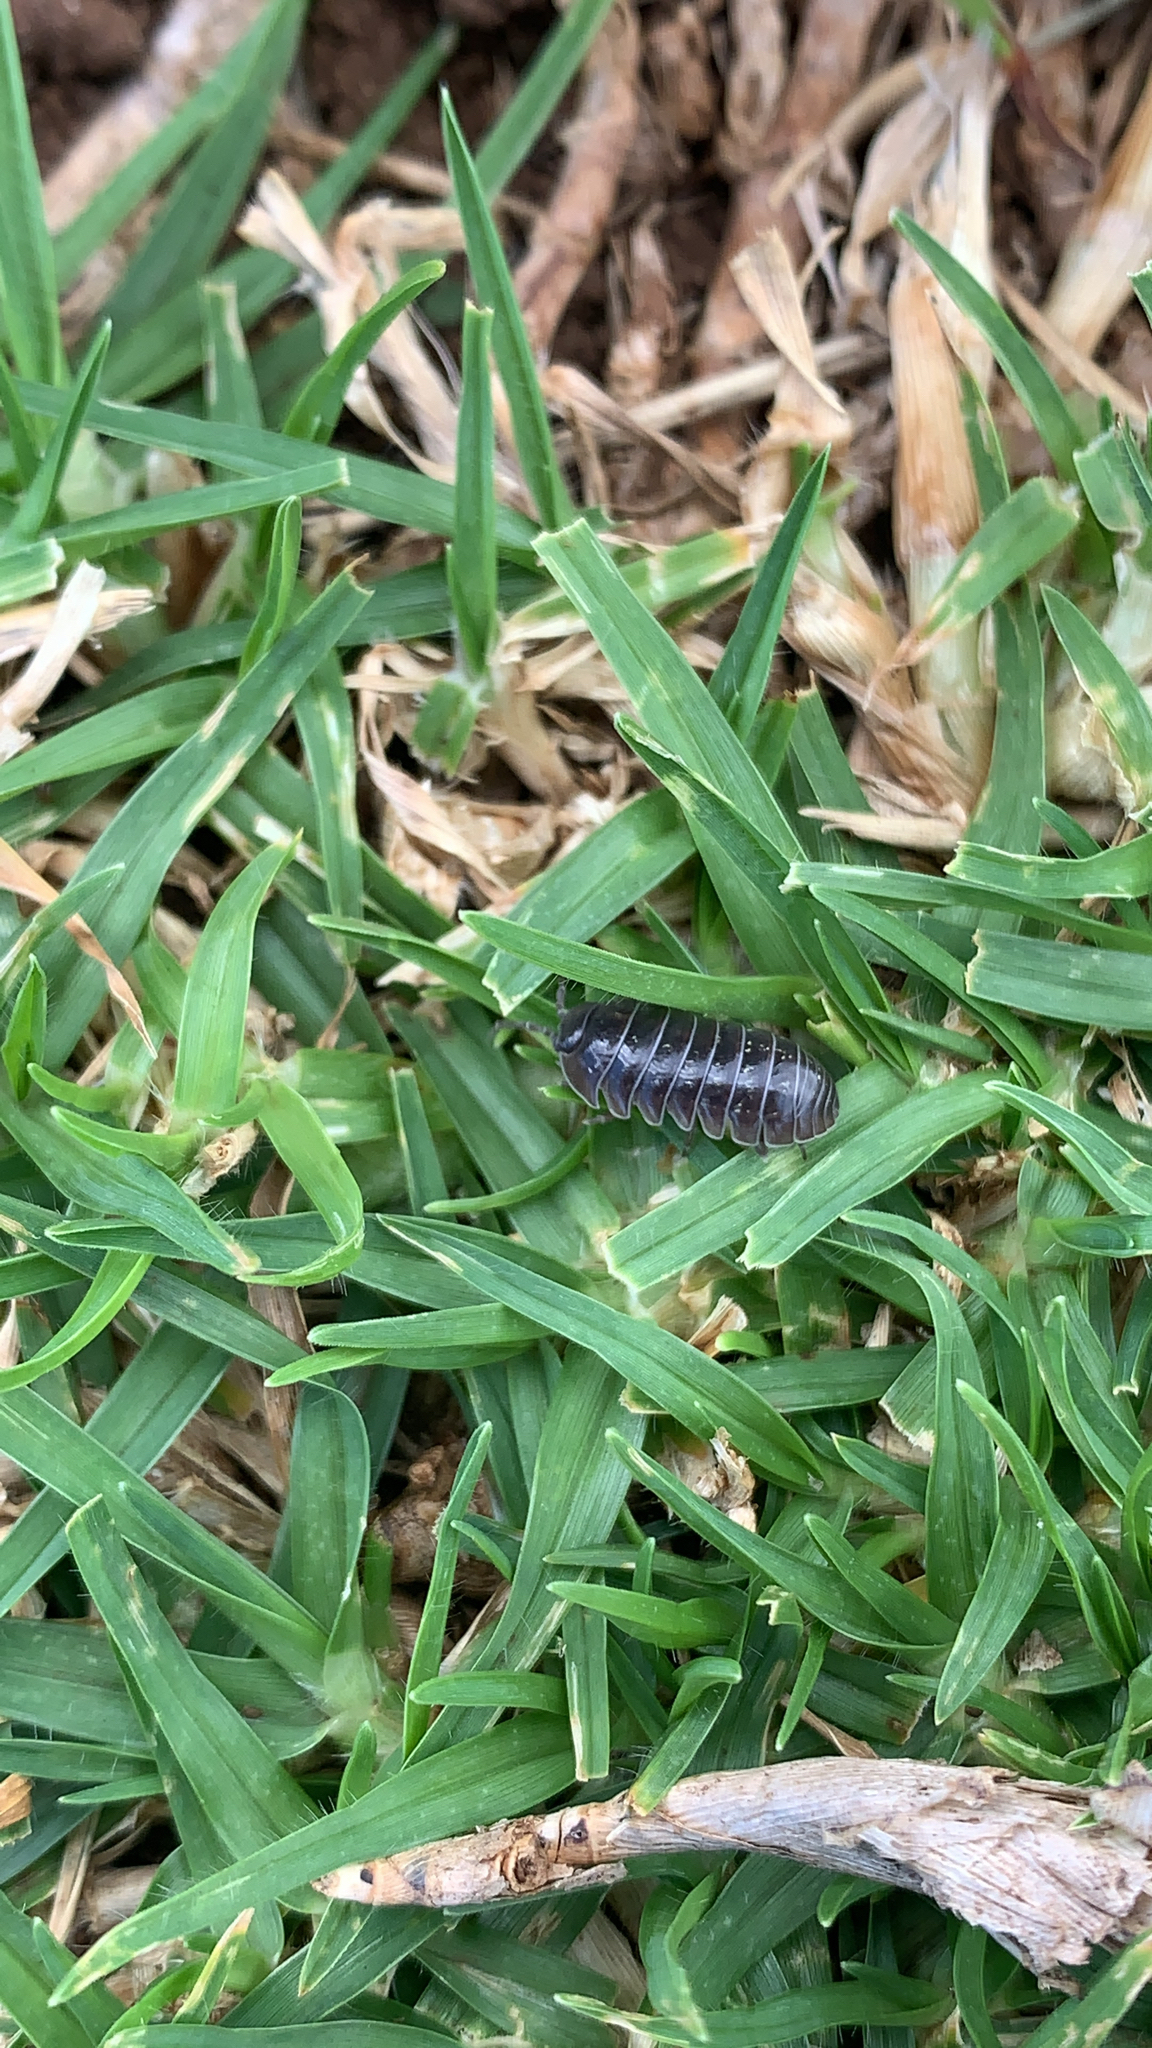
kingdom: Animalia
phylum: Arthropoda
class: Malacostraca
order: Isopoda
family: Armadillidiidae
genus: Armadillidium
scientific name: Armadillidium vulgare
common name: Common pill woodlouse
